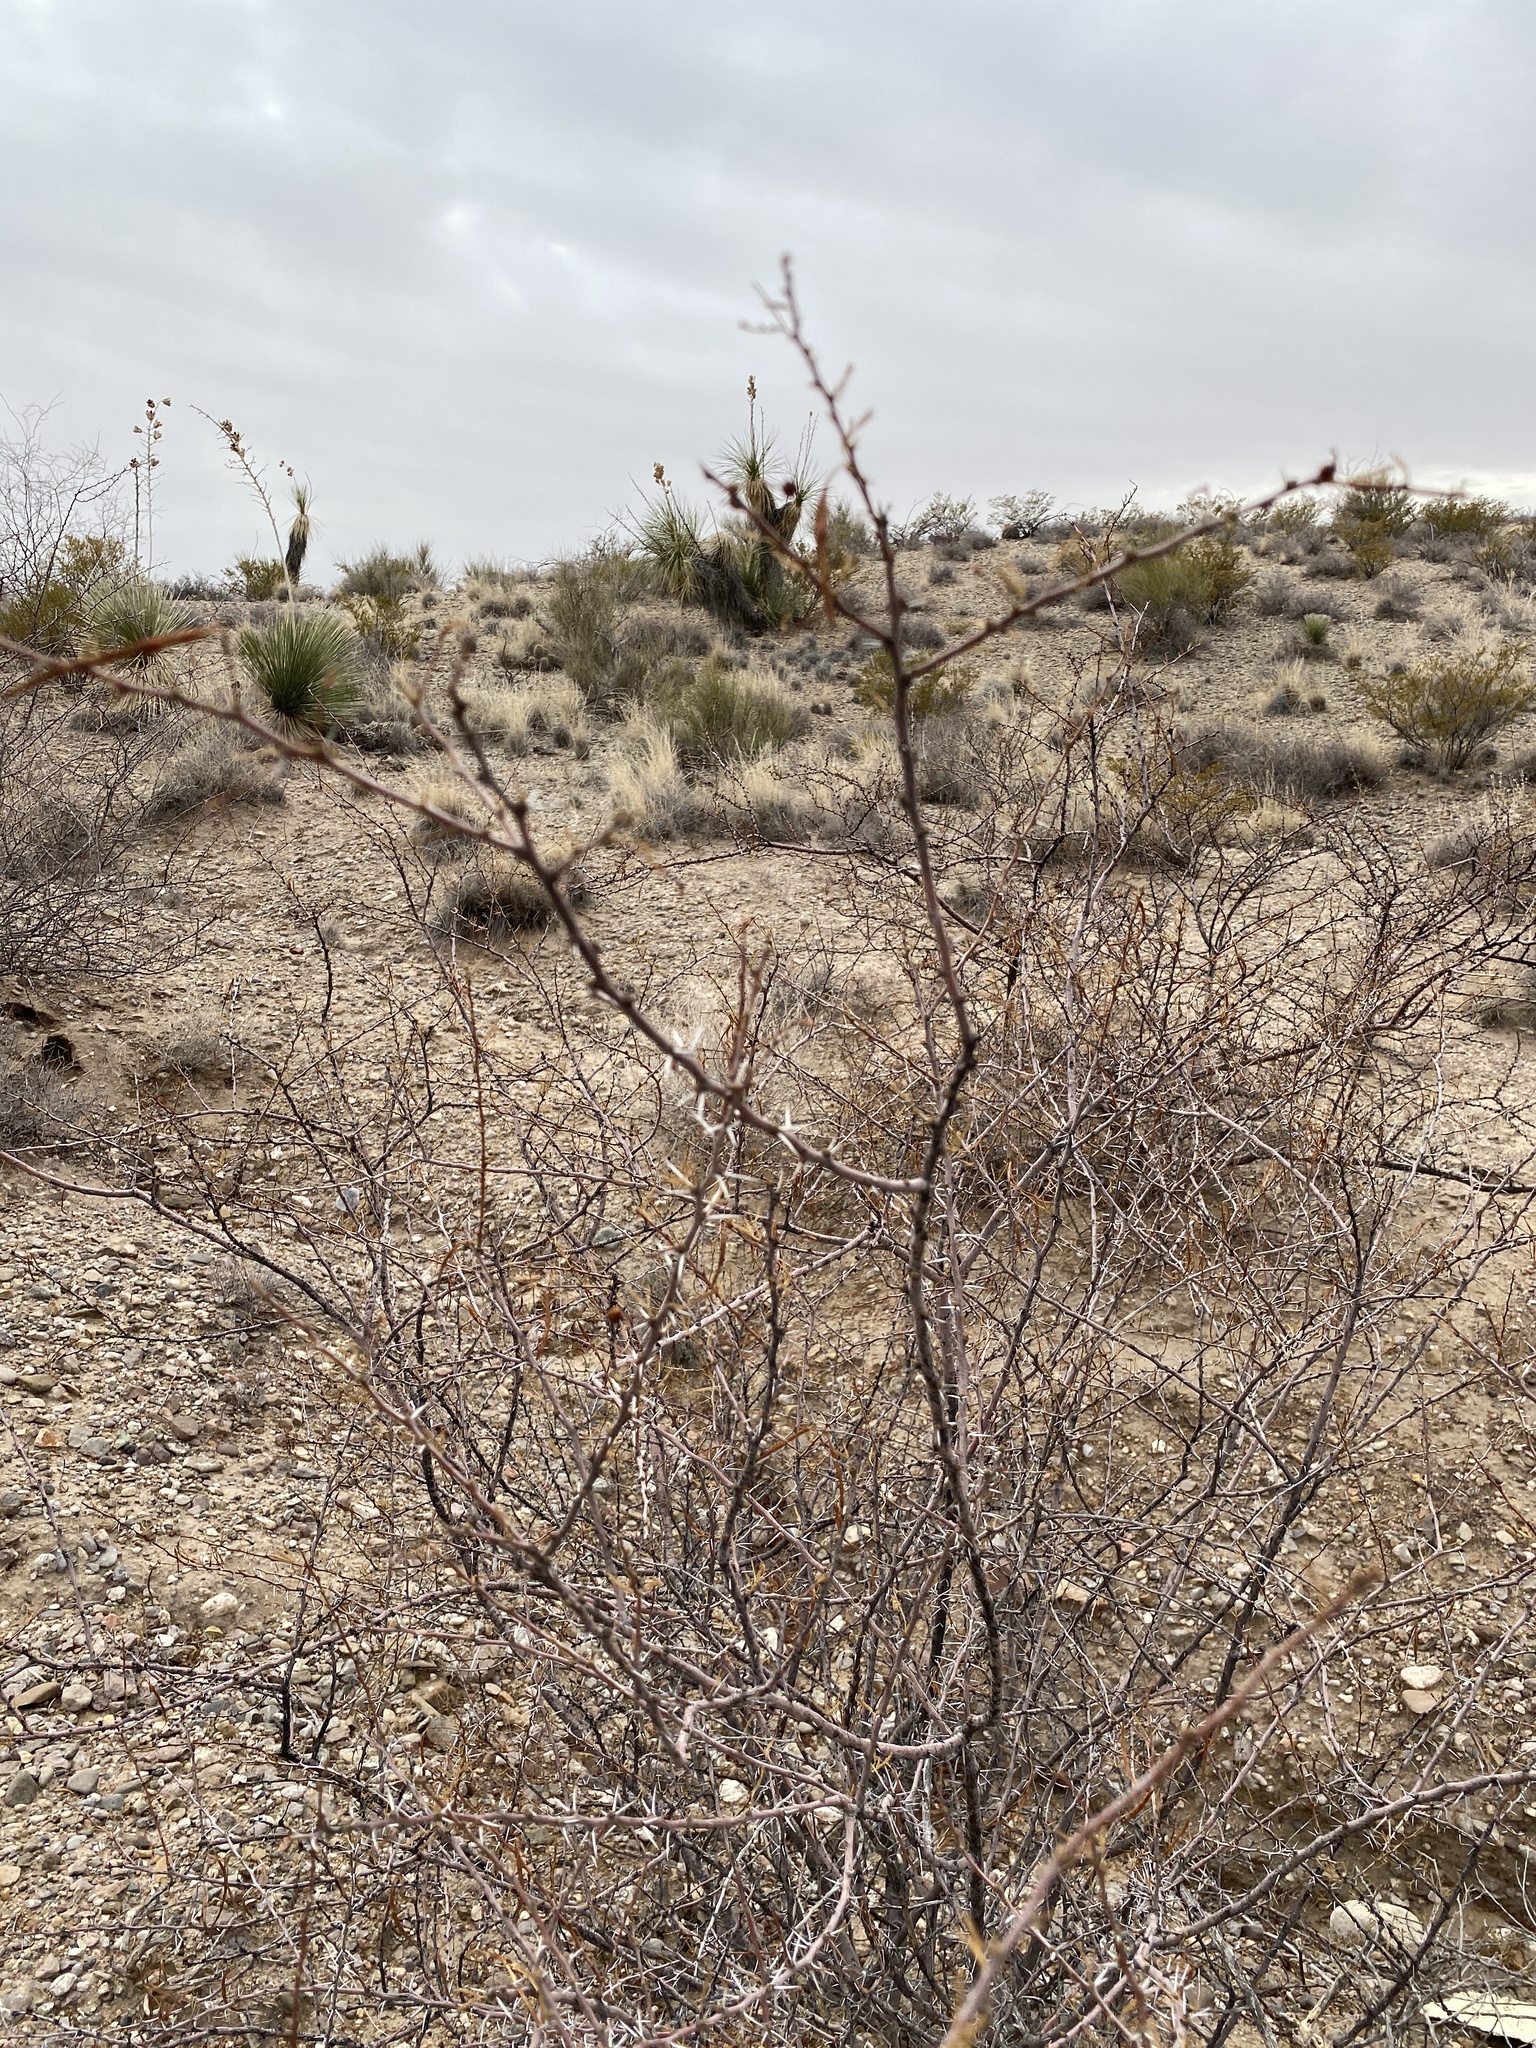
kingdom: Plantae
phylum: Tracheophyta
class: Magnoliopsida
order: Fabales
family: Fabaceae
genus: Vachellia
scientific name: Vachellia constricta
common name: Mescat acacia
